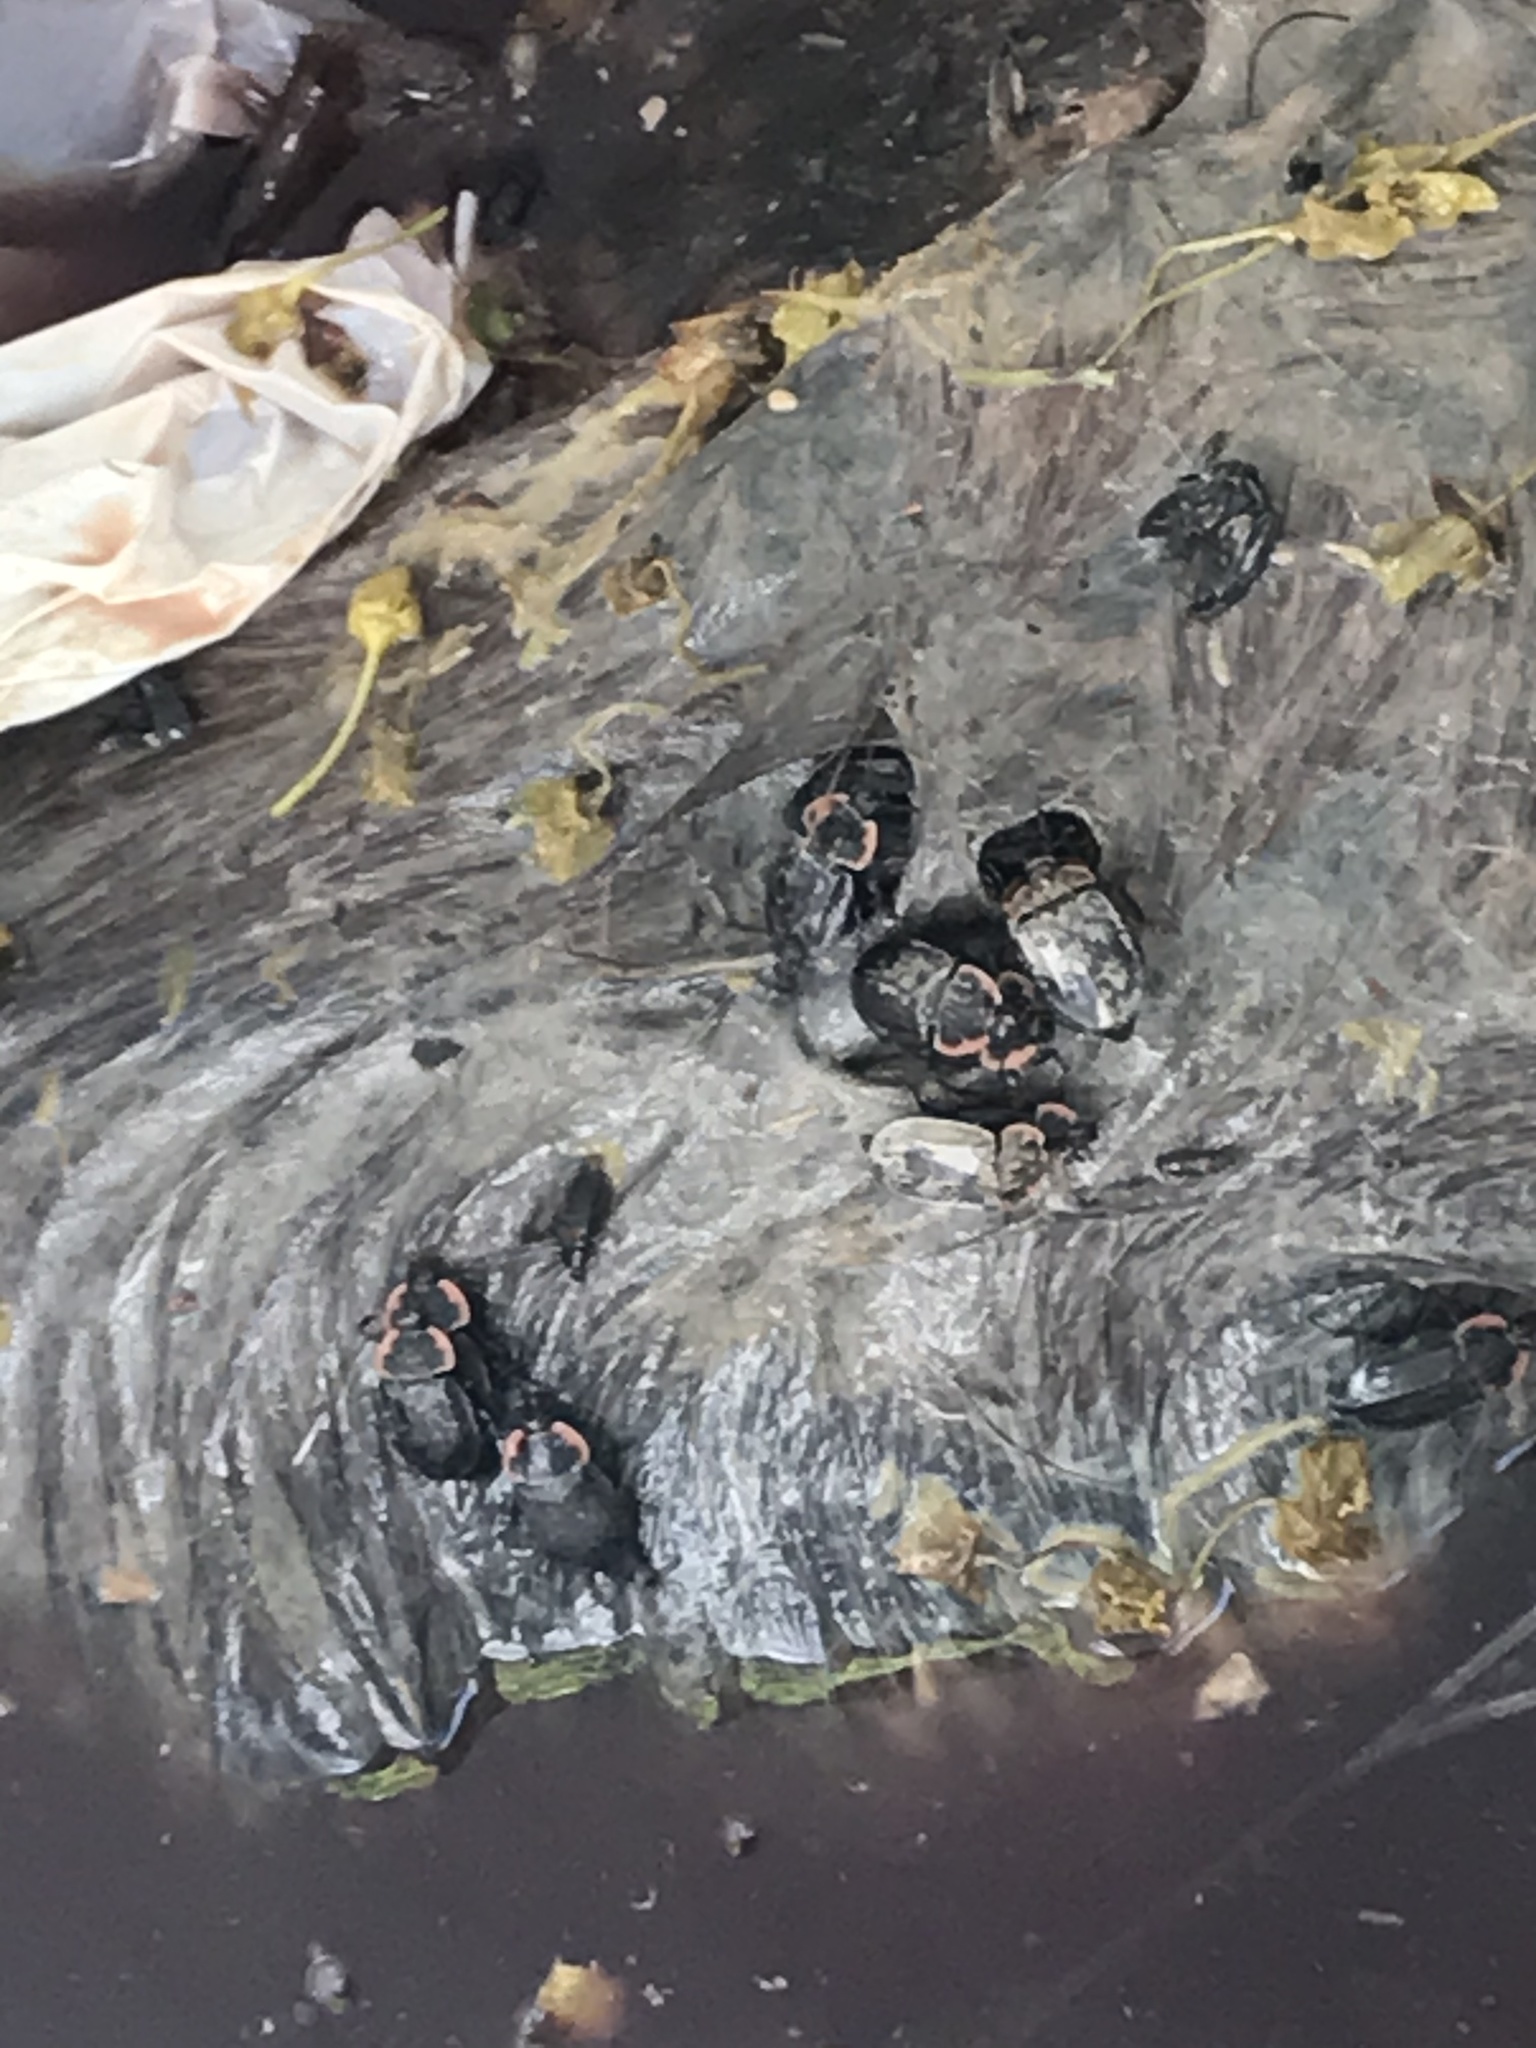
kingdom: Animalia
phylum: Arthropoda
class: Insecta
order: Coleoptera
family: Staphylinidae
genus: Oiceoptoma
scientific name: Oiceoptoma noveboracense
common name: Margined carrion beetle
